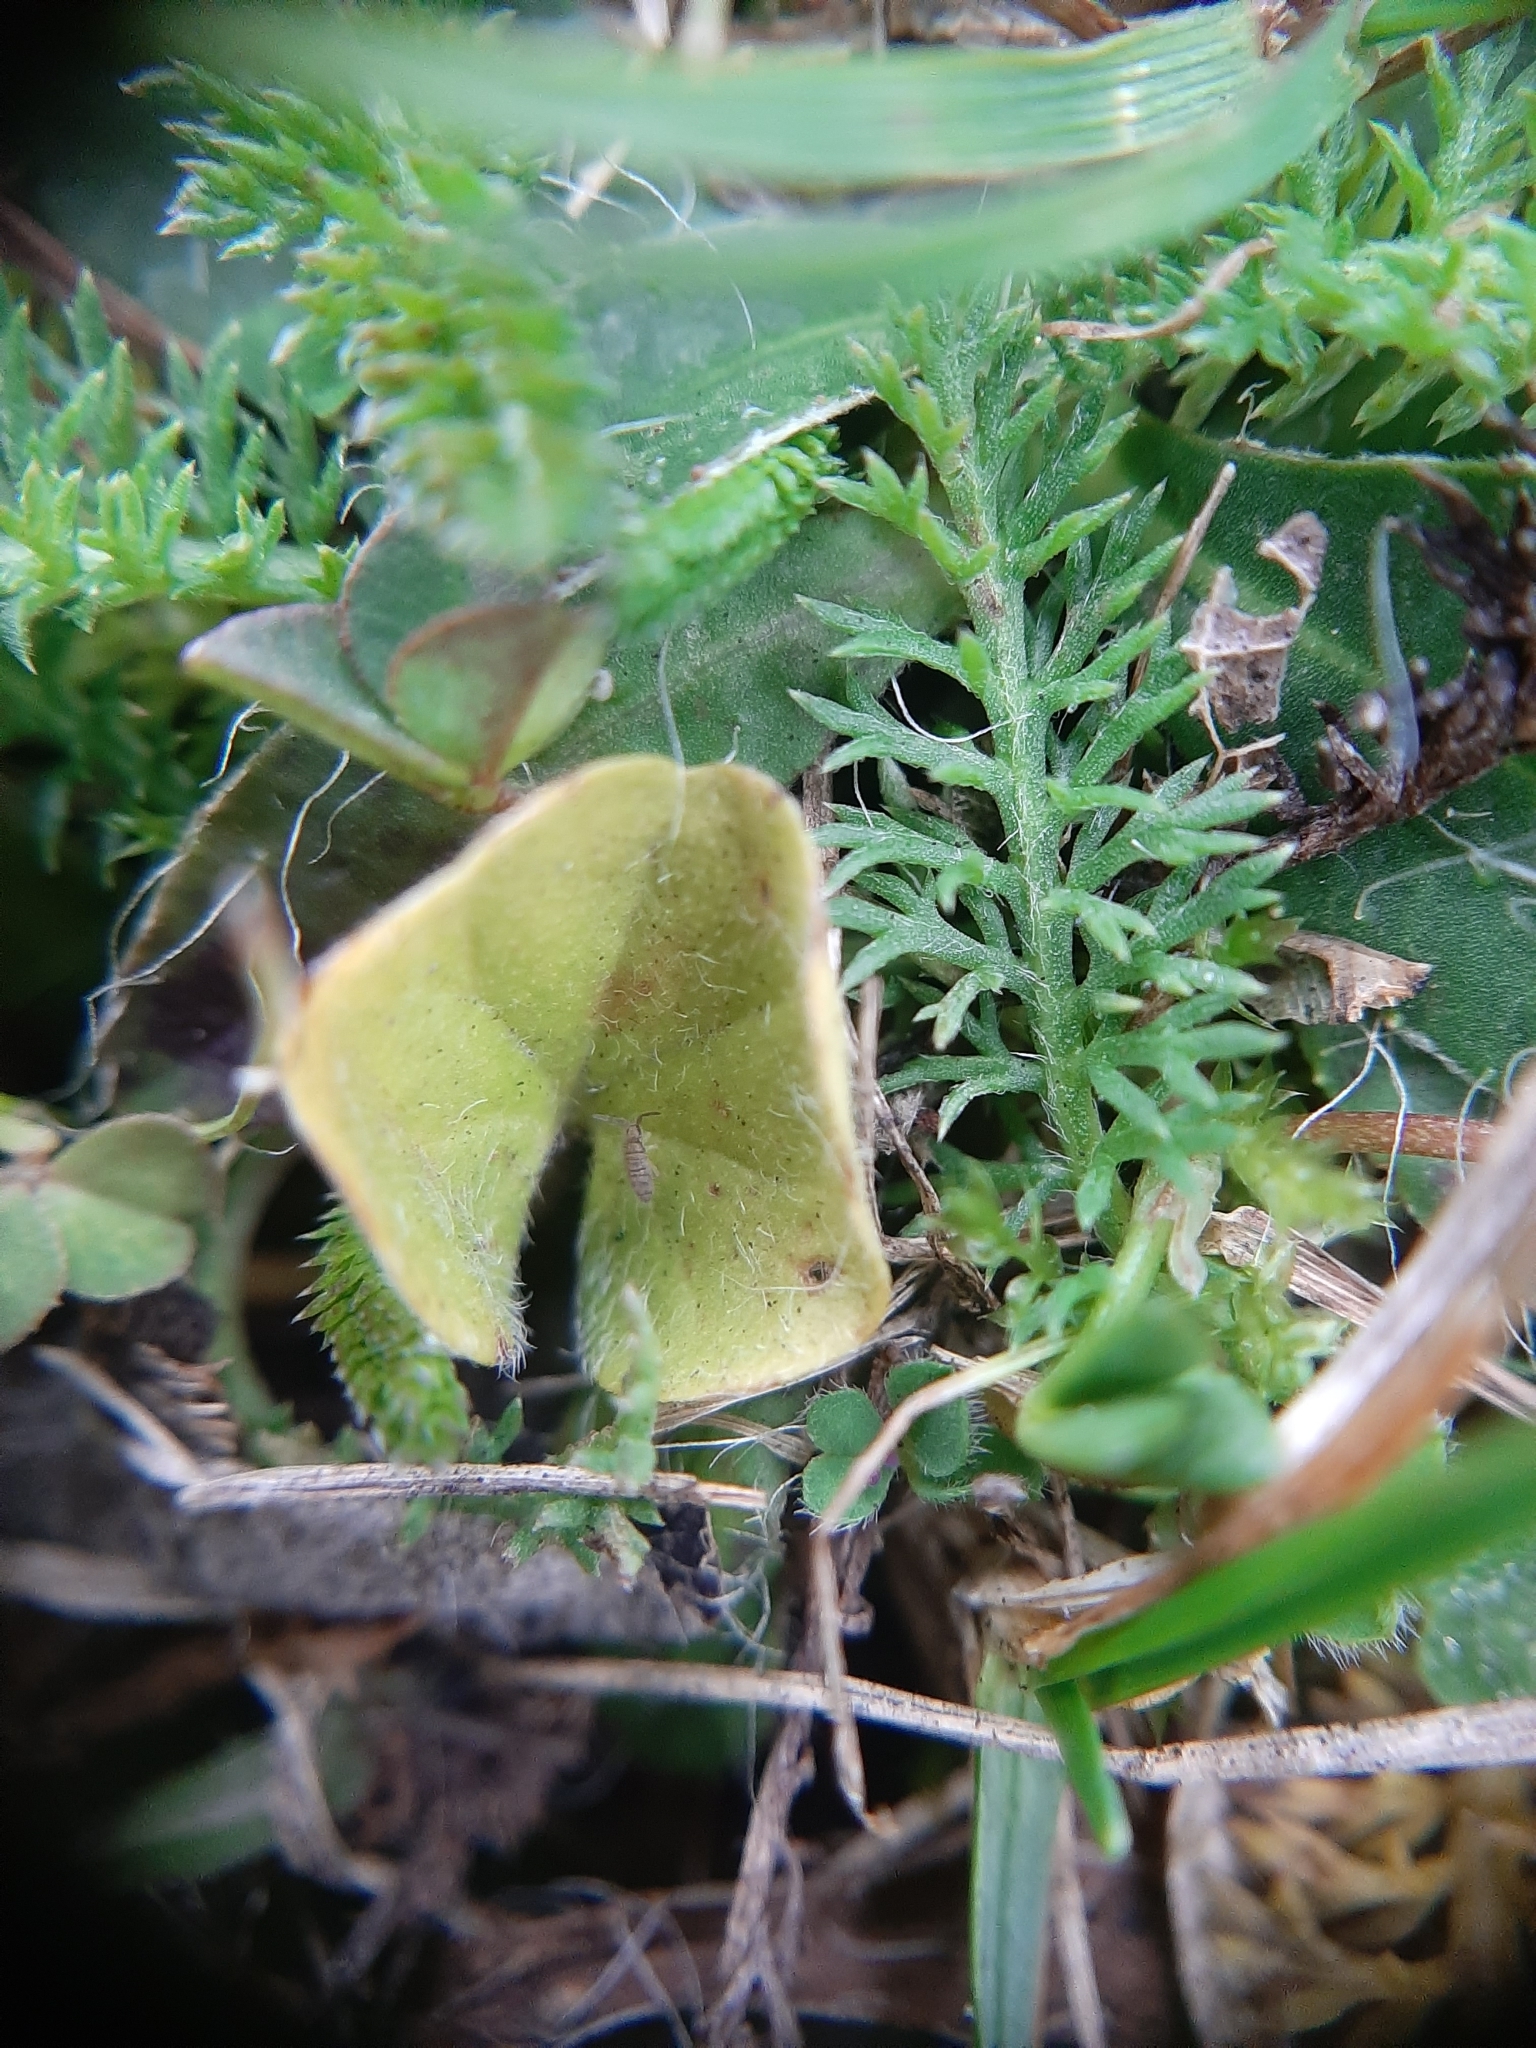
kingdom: Plantae
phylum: Tracheophyta
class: Magnoliopsida
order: Solanales
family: Convolvulaceae
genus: Dichondra
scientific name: Dichondra repens
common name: Kidneyweed
